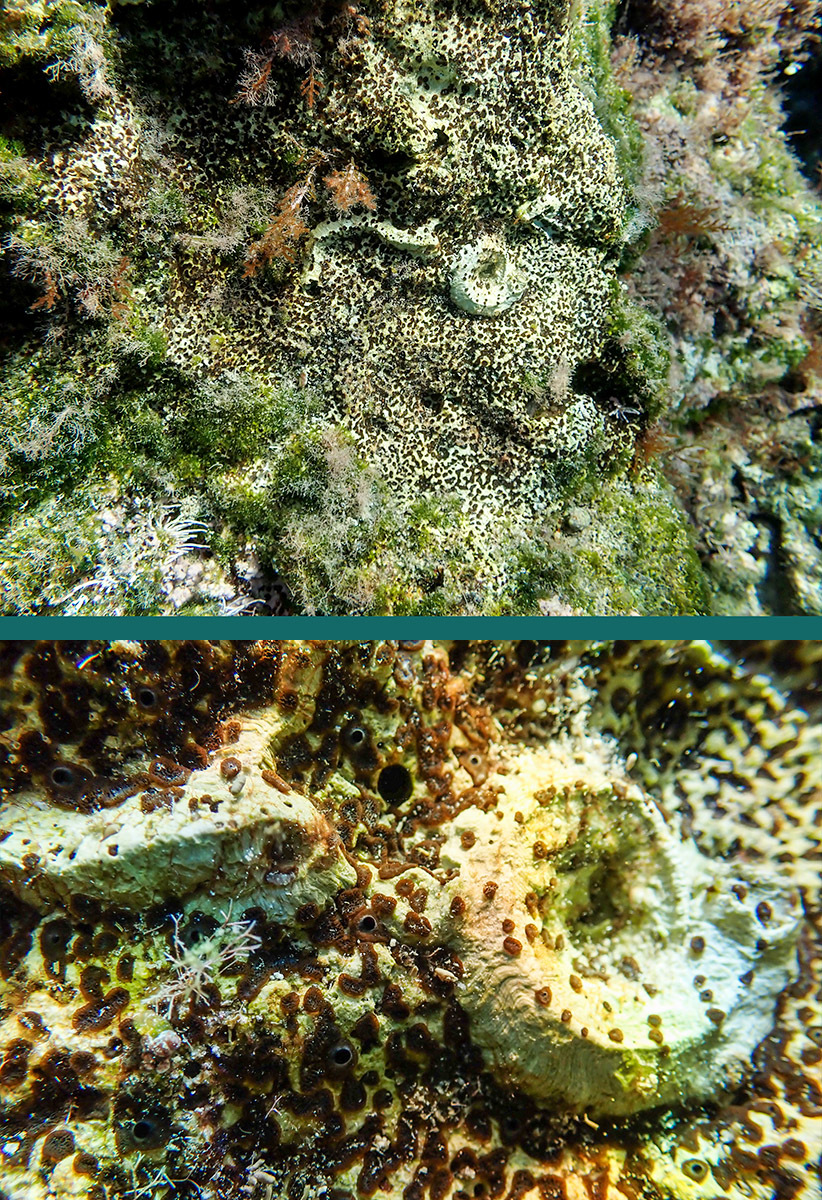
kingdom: Animalia
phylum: Porifera
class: Demospongiae
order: Clionaida
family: Clionaidae
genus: Cliona
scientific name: Cliona viridis
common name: Green boring sponge
